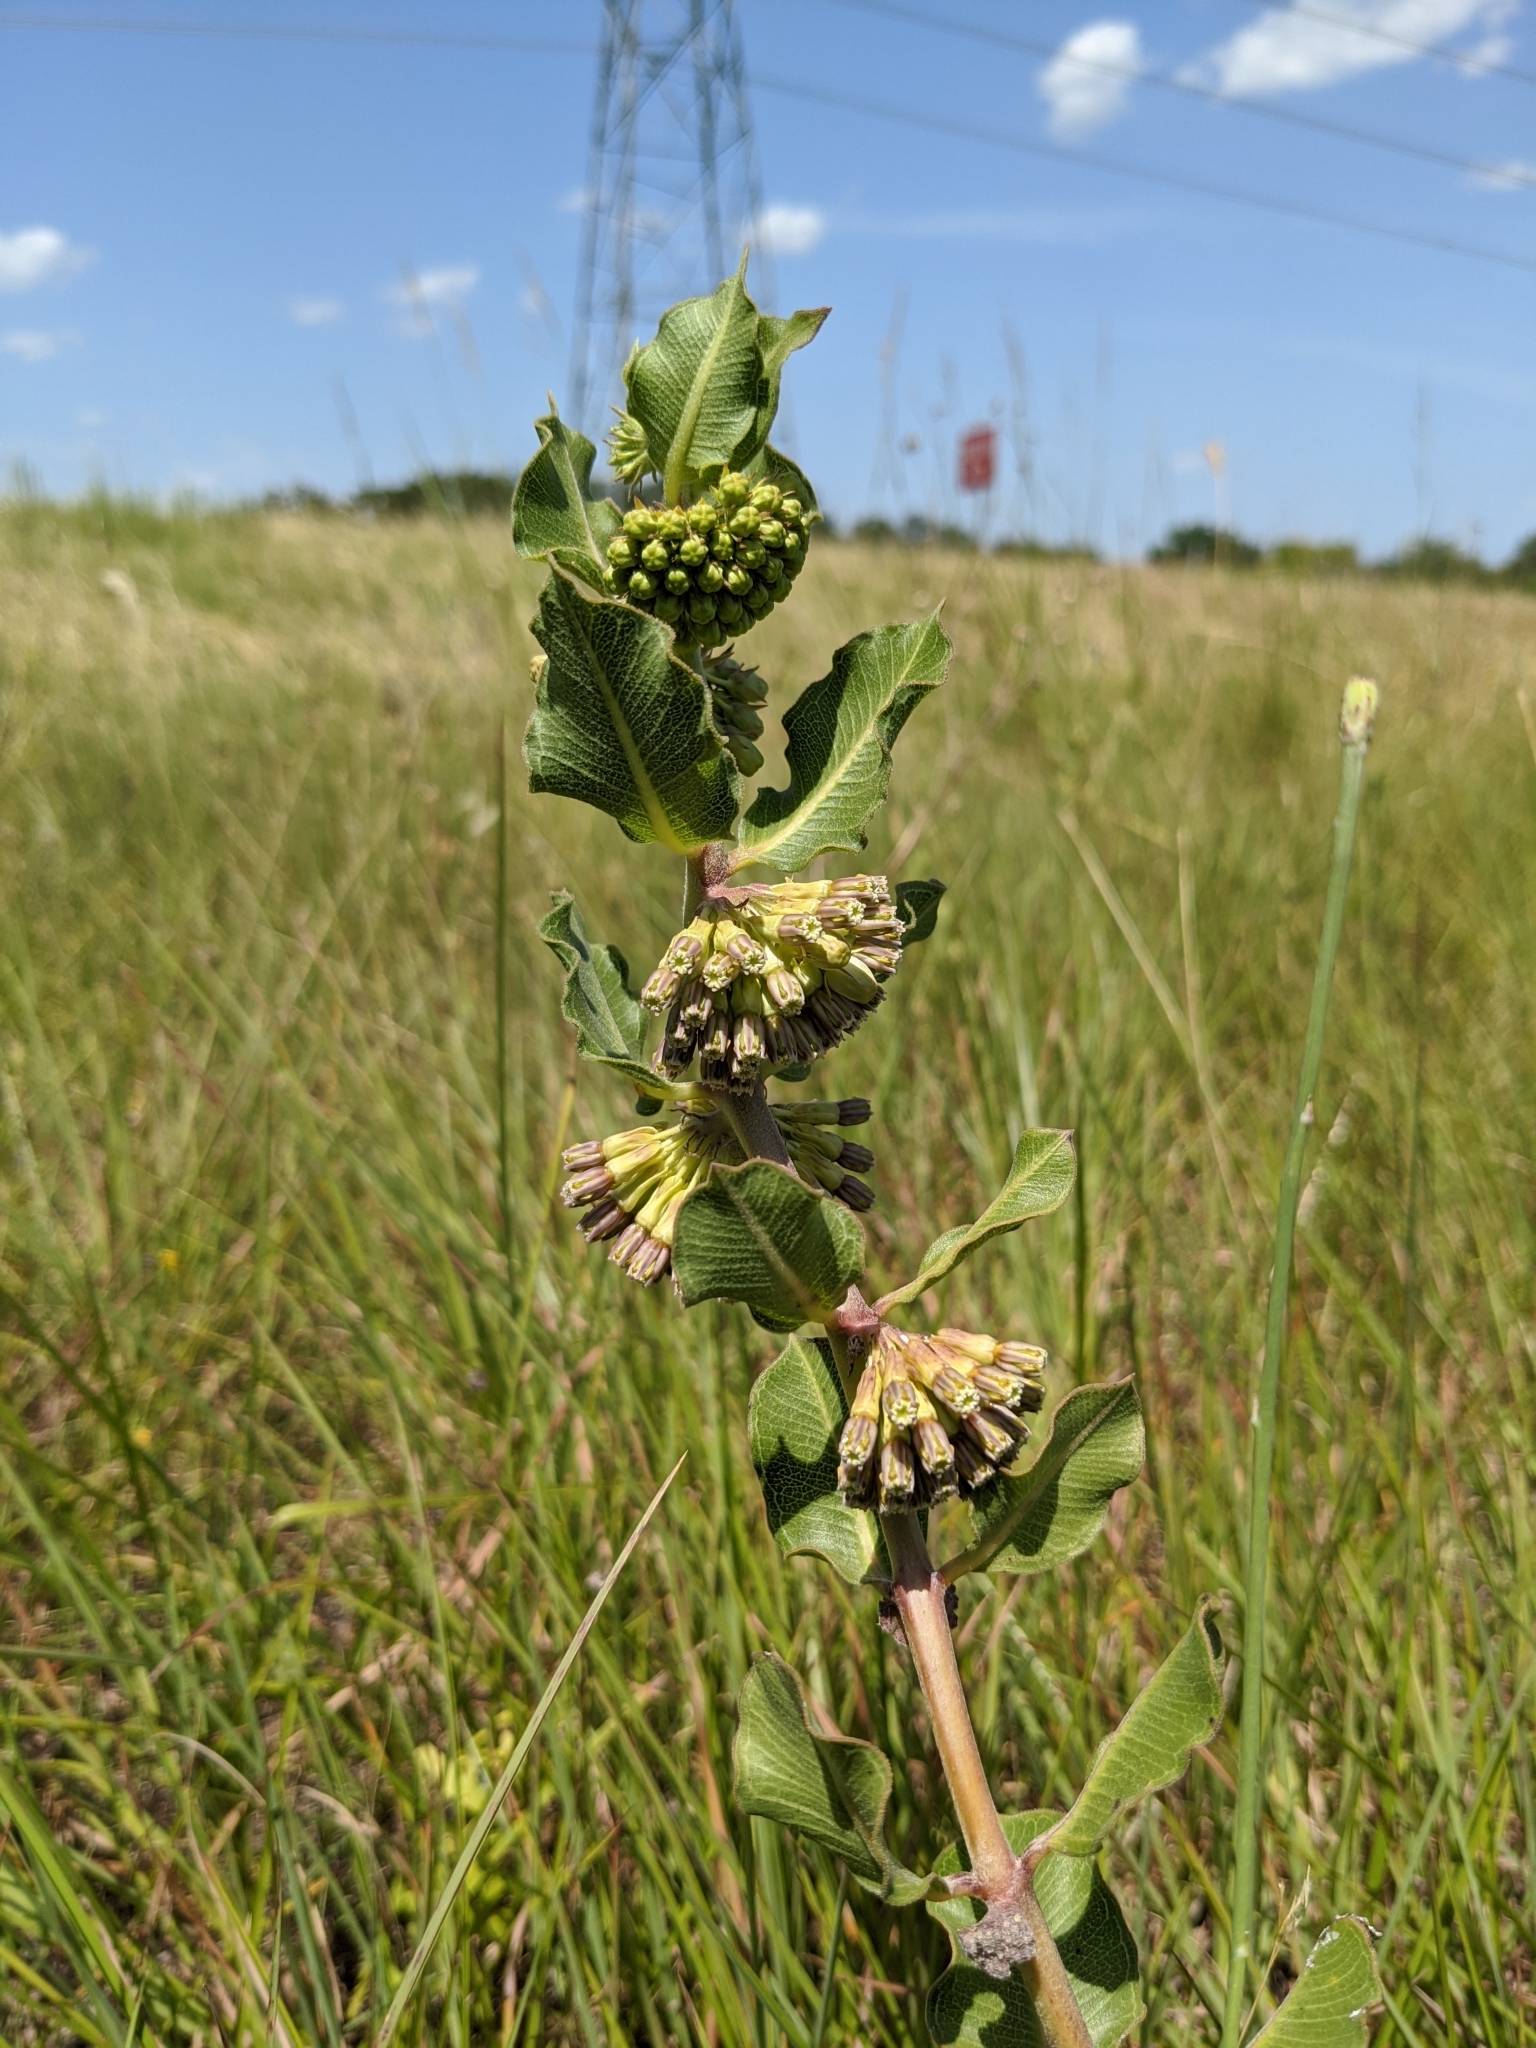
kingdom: Plantae
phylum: Tracheophyta
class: Magnoliopsida
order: Gentianales
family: Apocynaceae
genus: Asclepias
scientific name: Asclepias viridiflora
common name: Green comet milkweed
